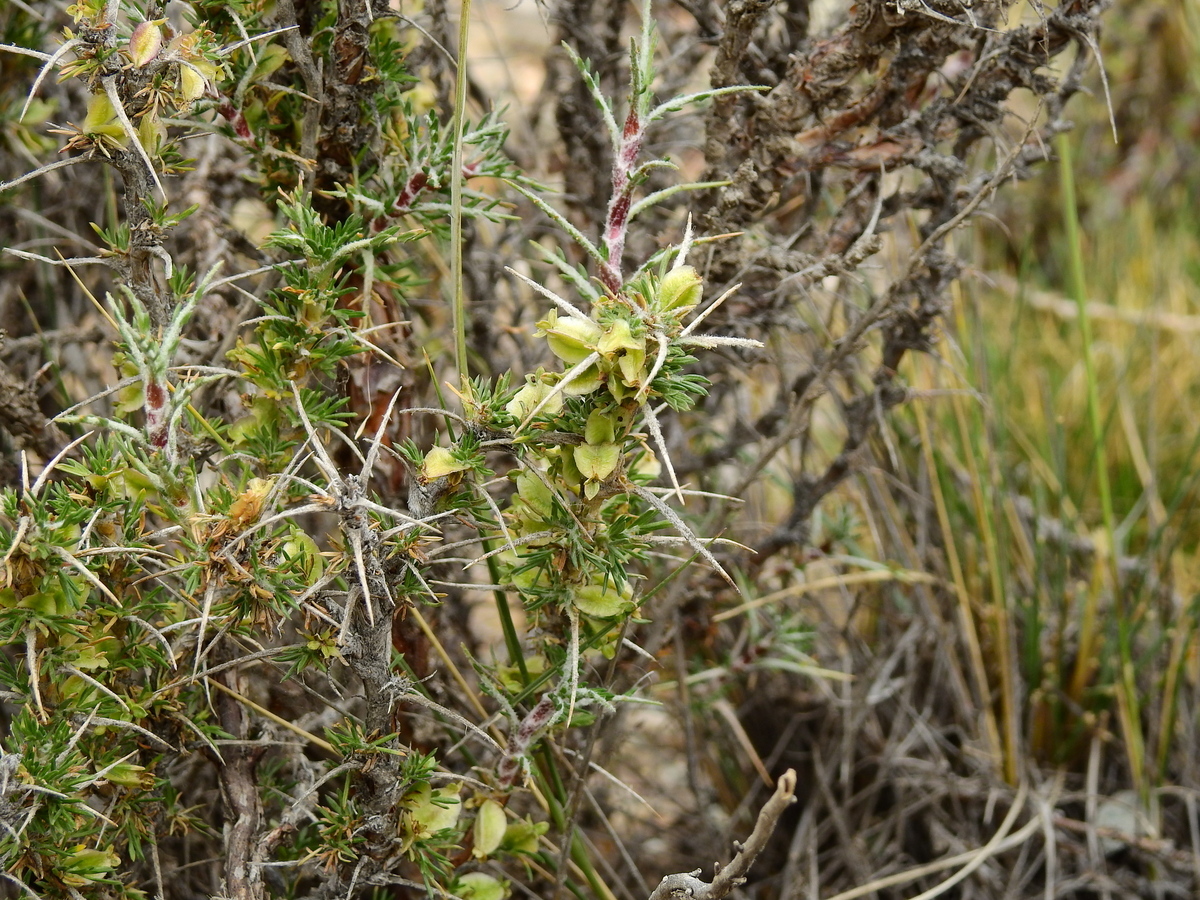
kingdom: Plantae
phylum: Tracheophyta
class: Magnoliopsida
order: Rosales
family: Rosaceae
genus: Margyricarpus
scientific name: Margyricarpus alatus
